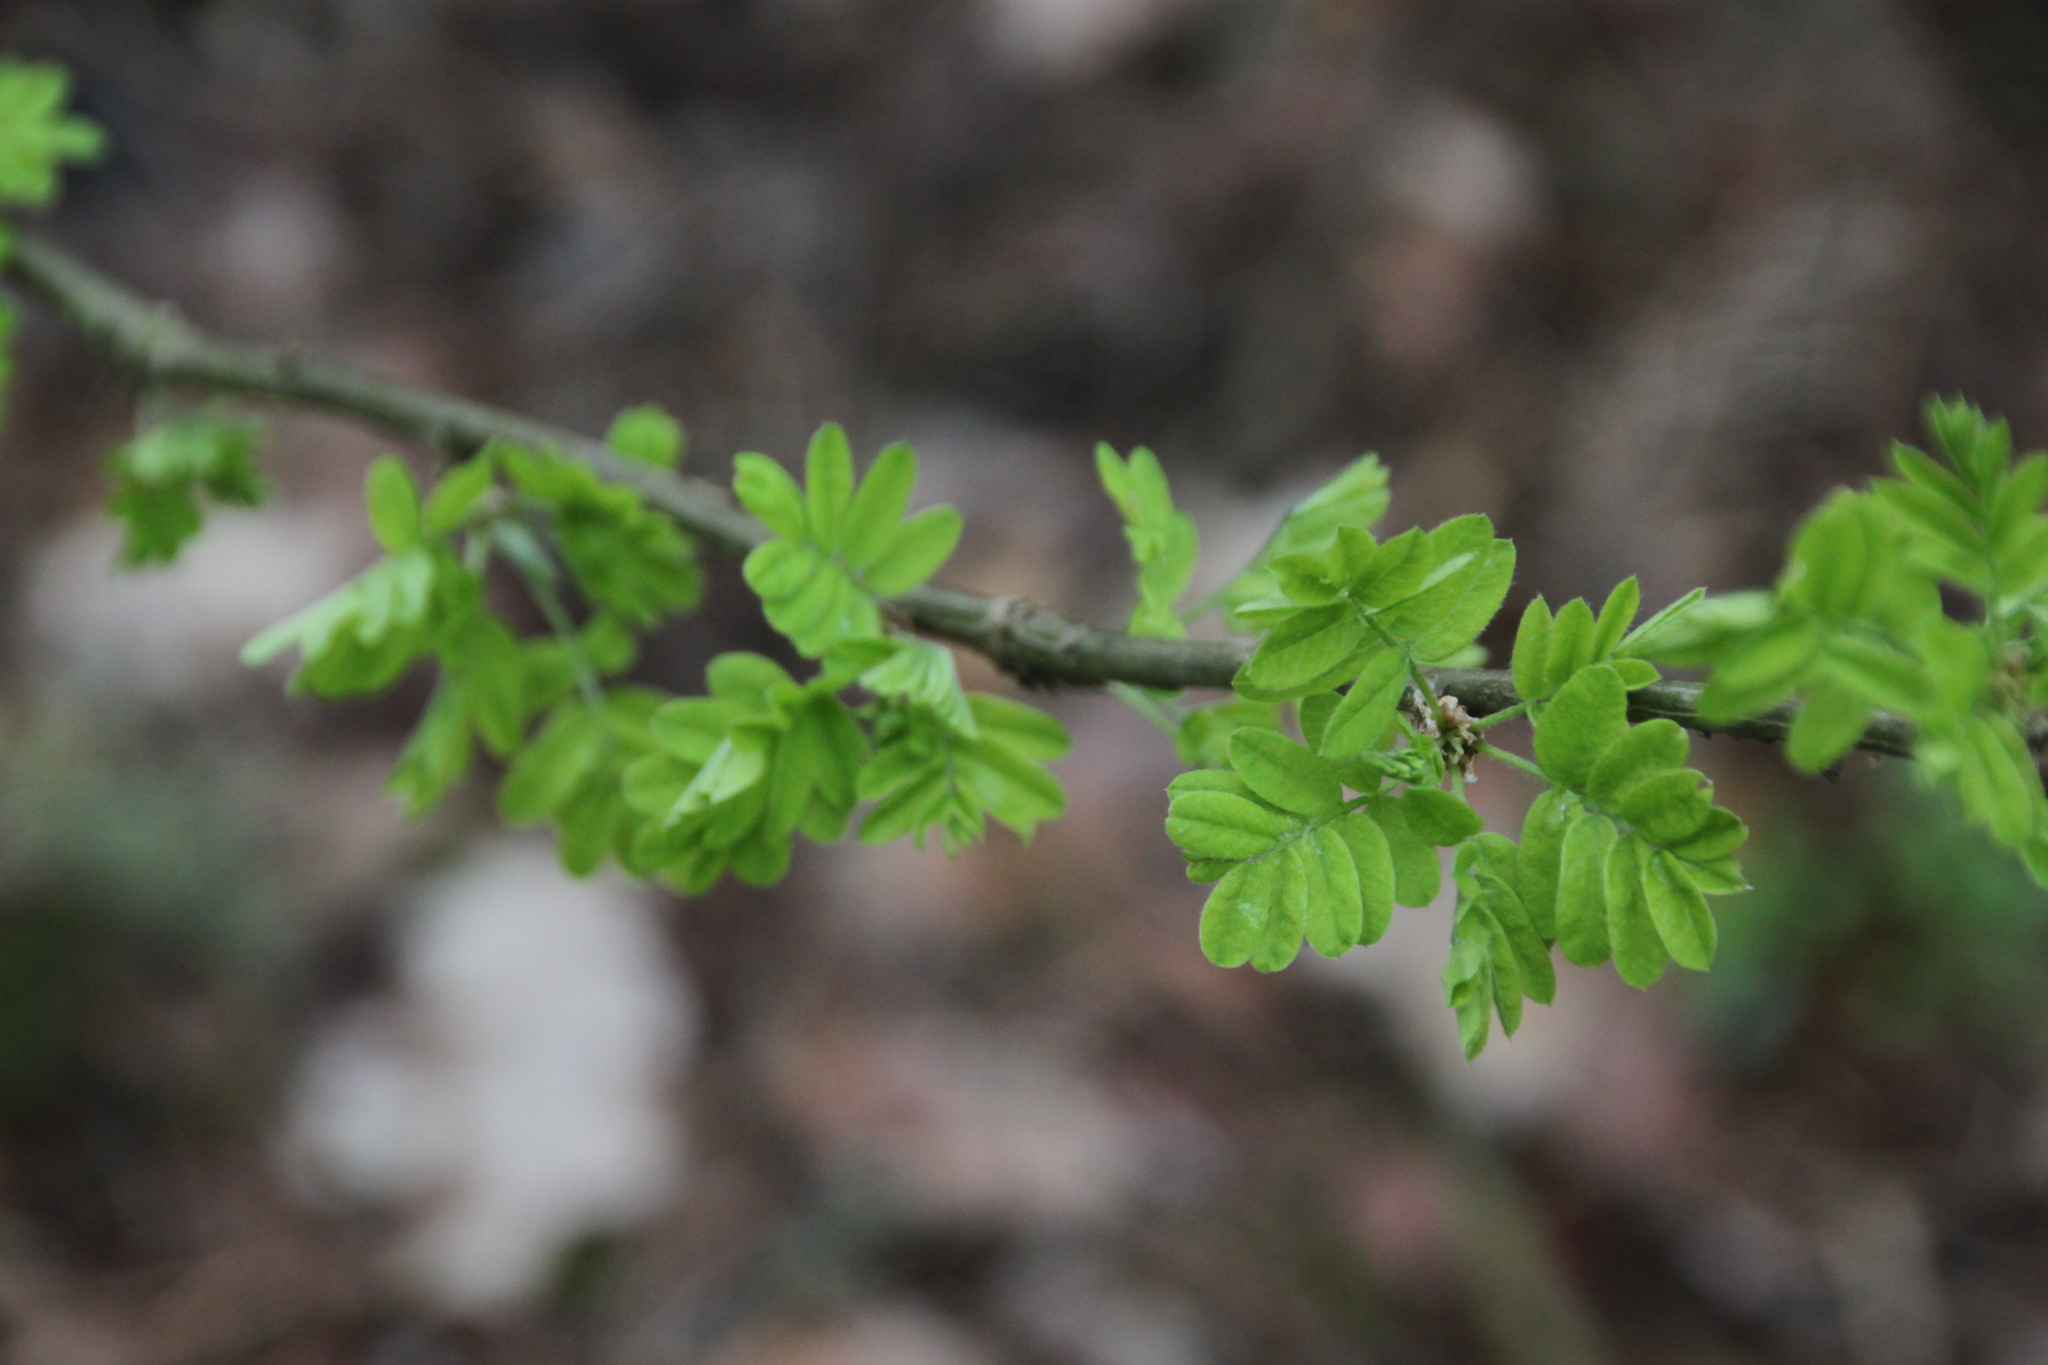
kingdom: Plantae
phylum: Tracheophyta
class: Magnoliopsida
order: Fabales
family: Fabaceae
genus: Caragana
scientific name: Caragana arborescens
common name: Siberian peashrub
